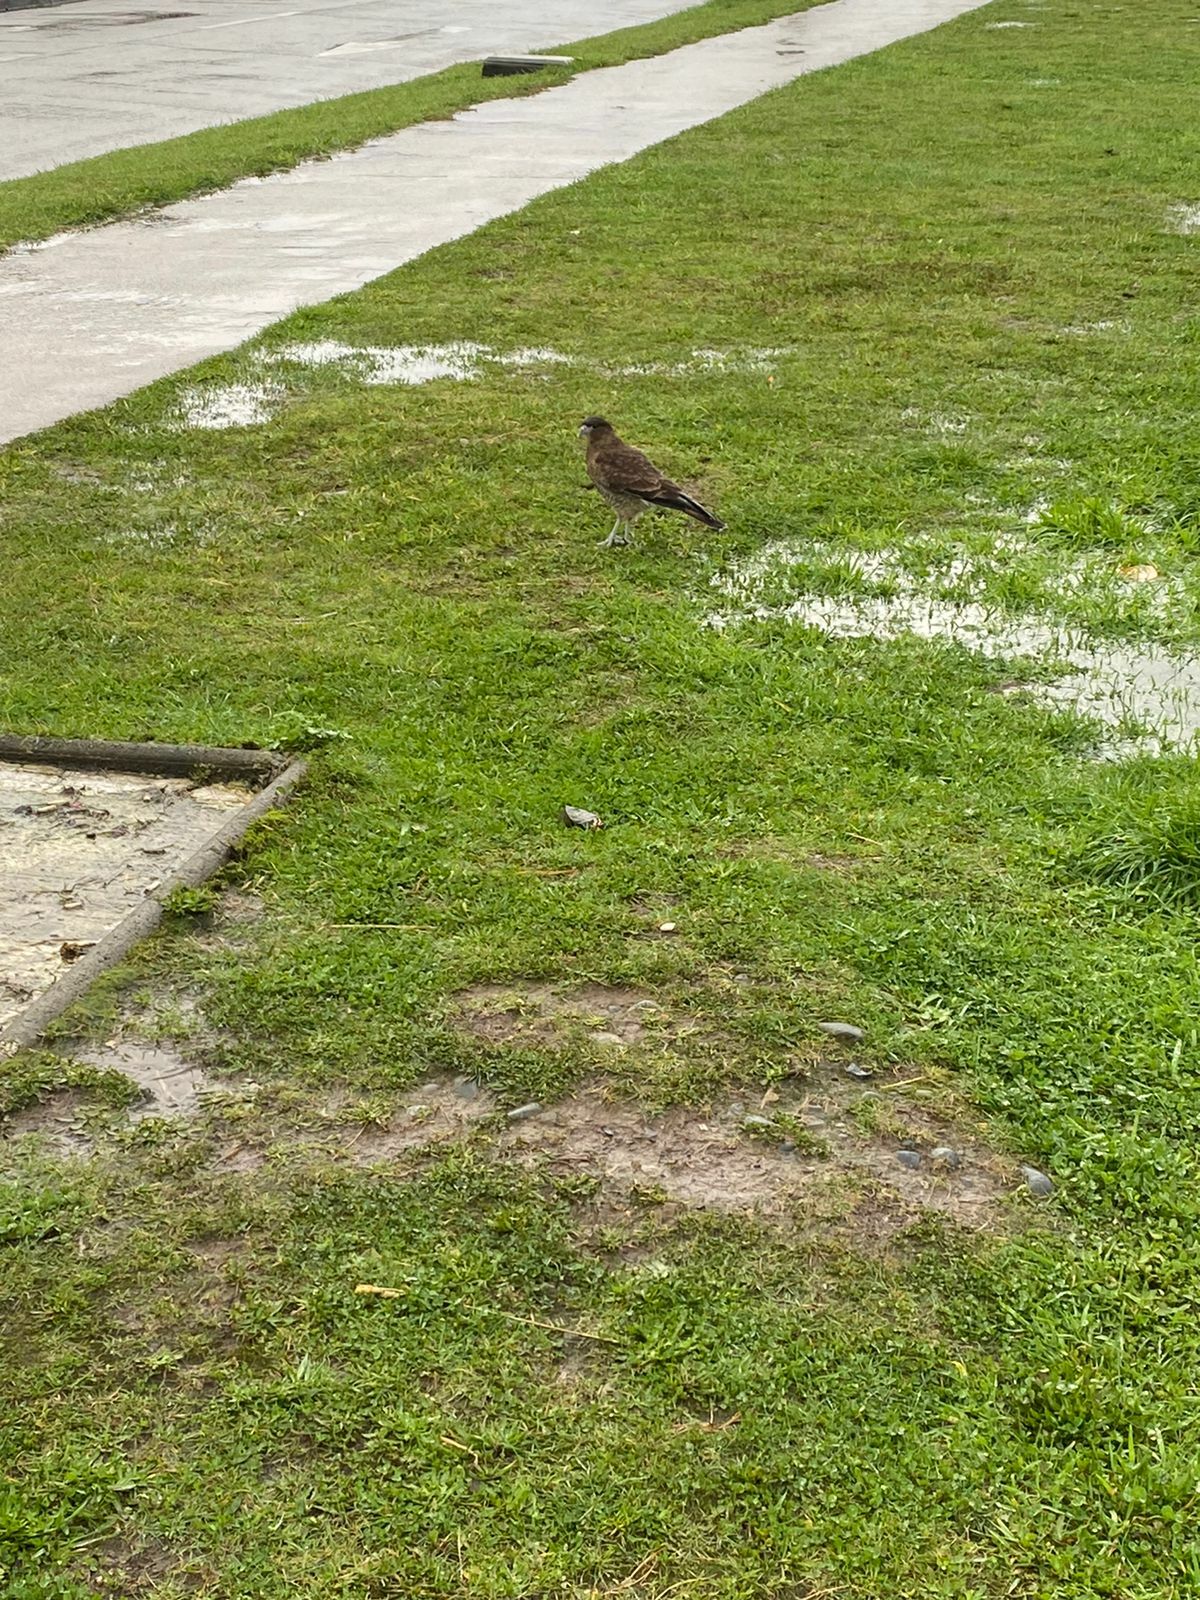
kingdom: Animalia
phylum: Chordata
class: Aves
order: Falconiformes
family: Falconidae
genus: Daptrius
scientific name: Daptrius
